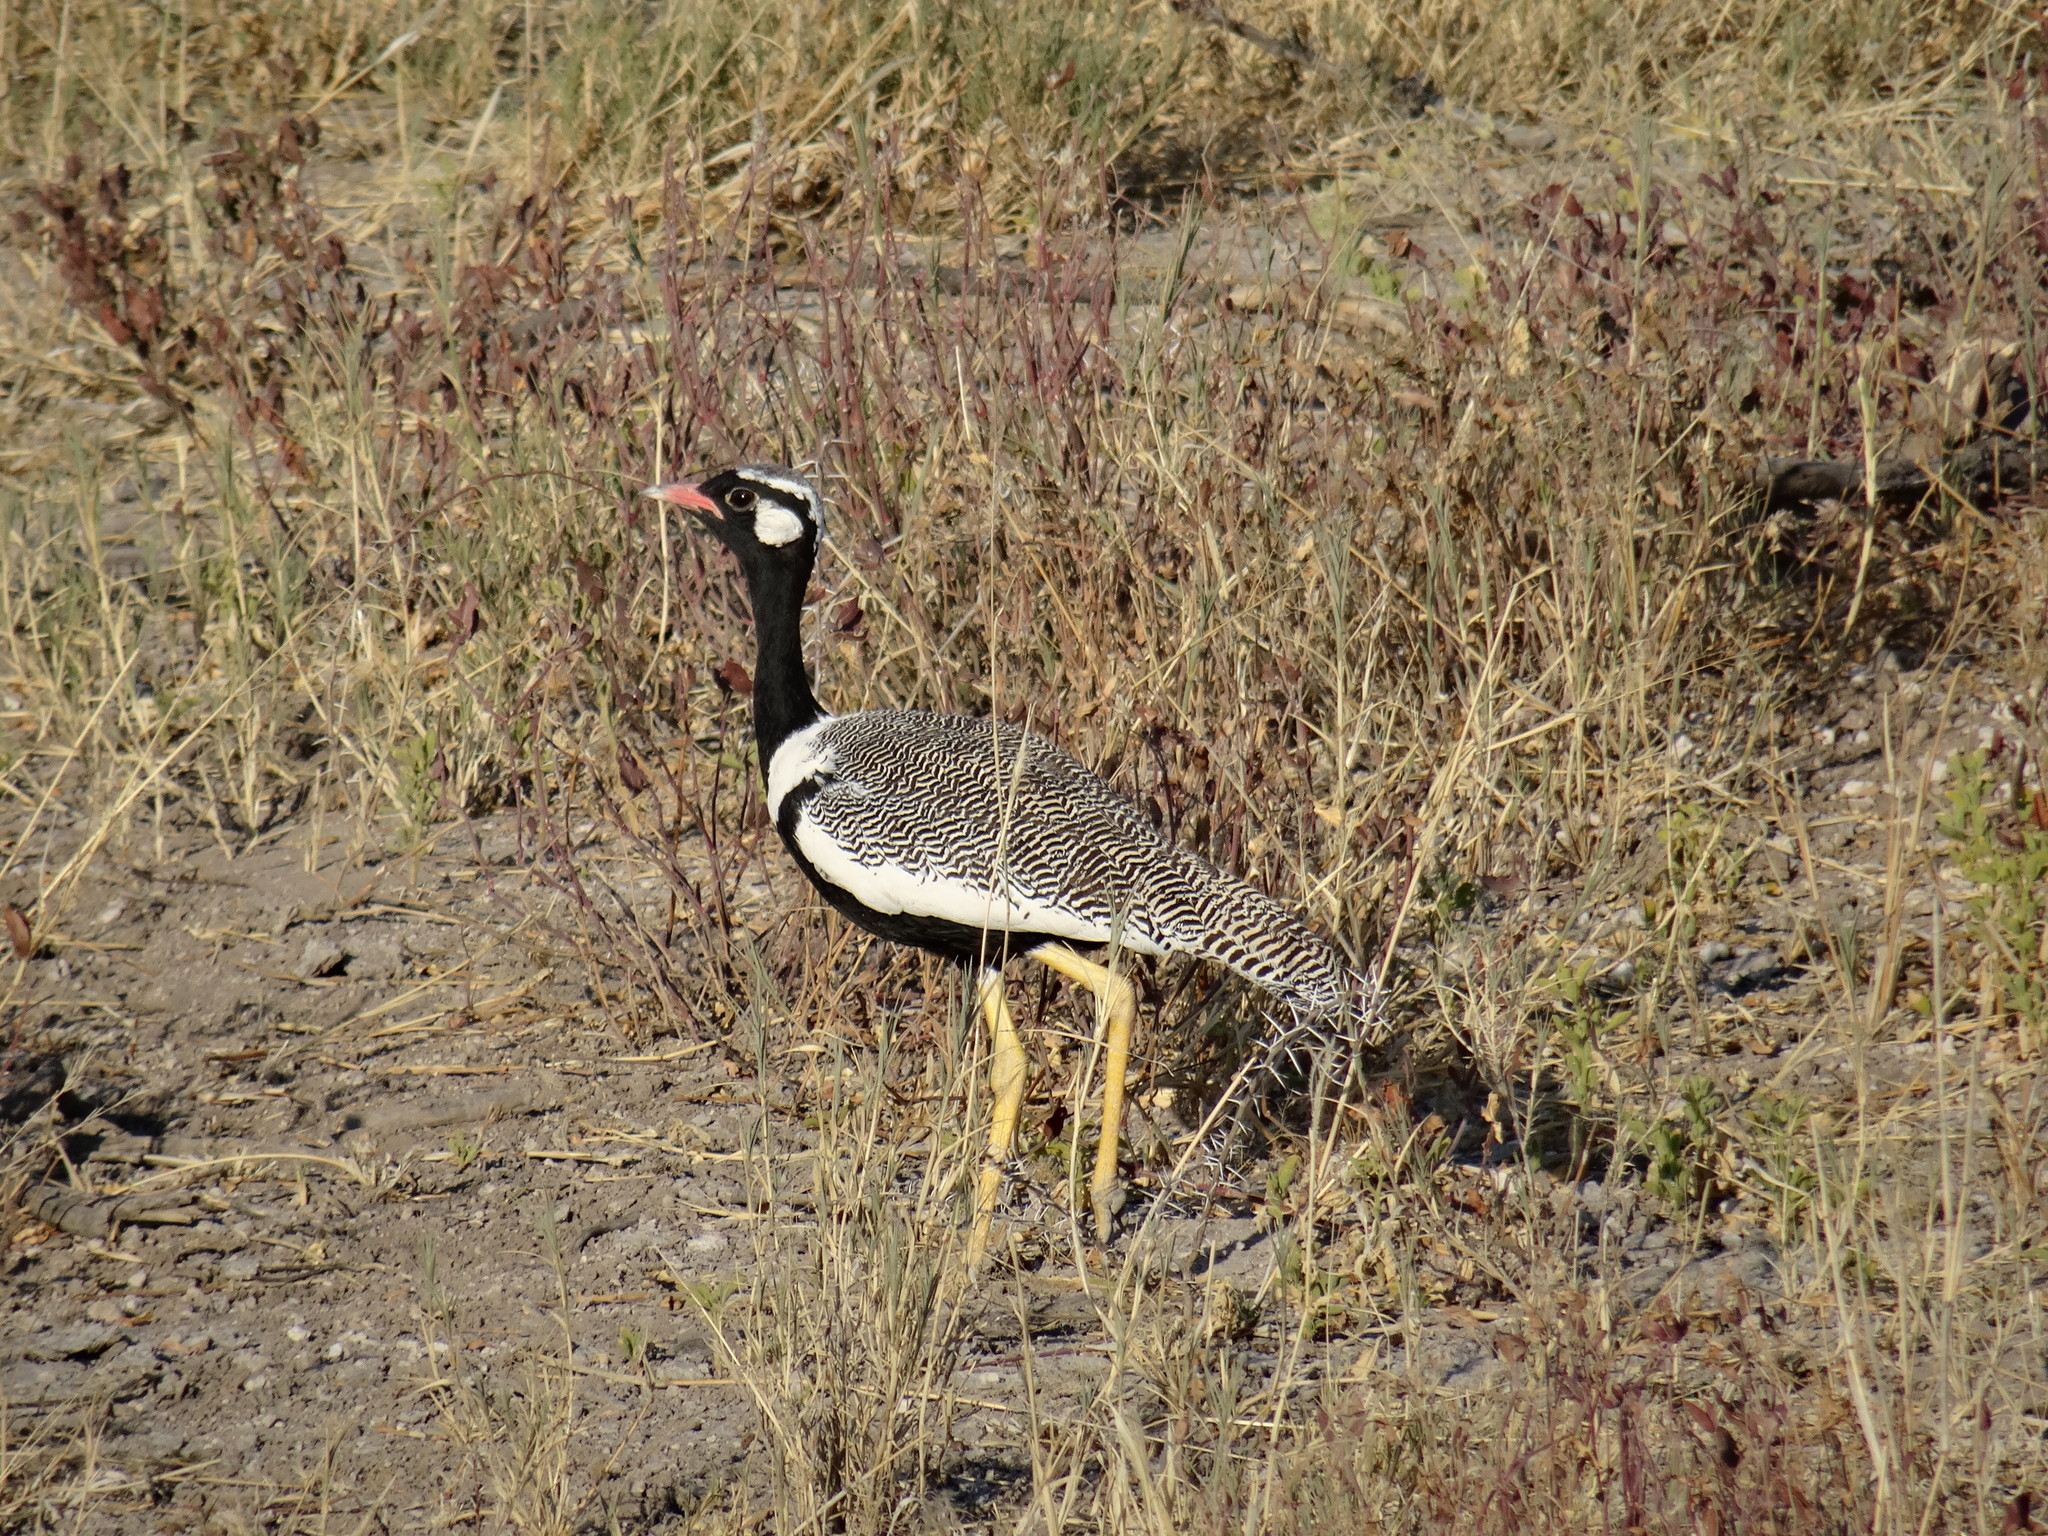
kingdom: Animalia
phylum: Chordata
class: Aves
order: Otidiformes
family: Otididae
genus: Afrotis
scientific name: Afrotis afraoides
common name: Northern black korhaan
